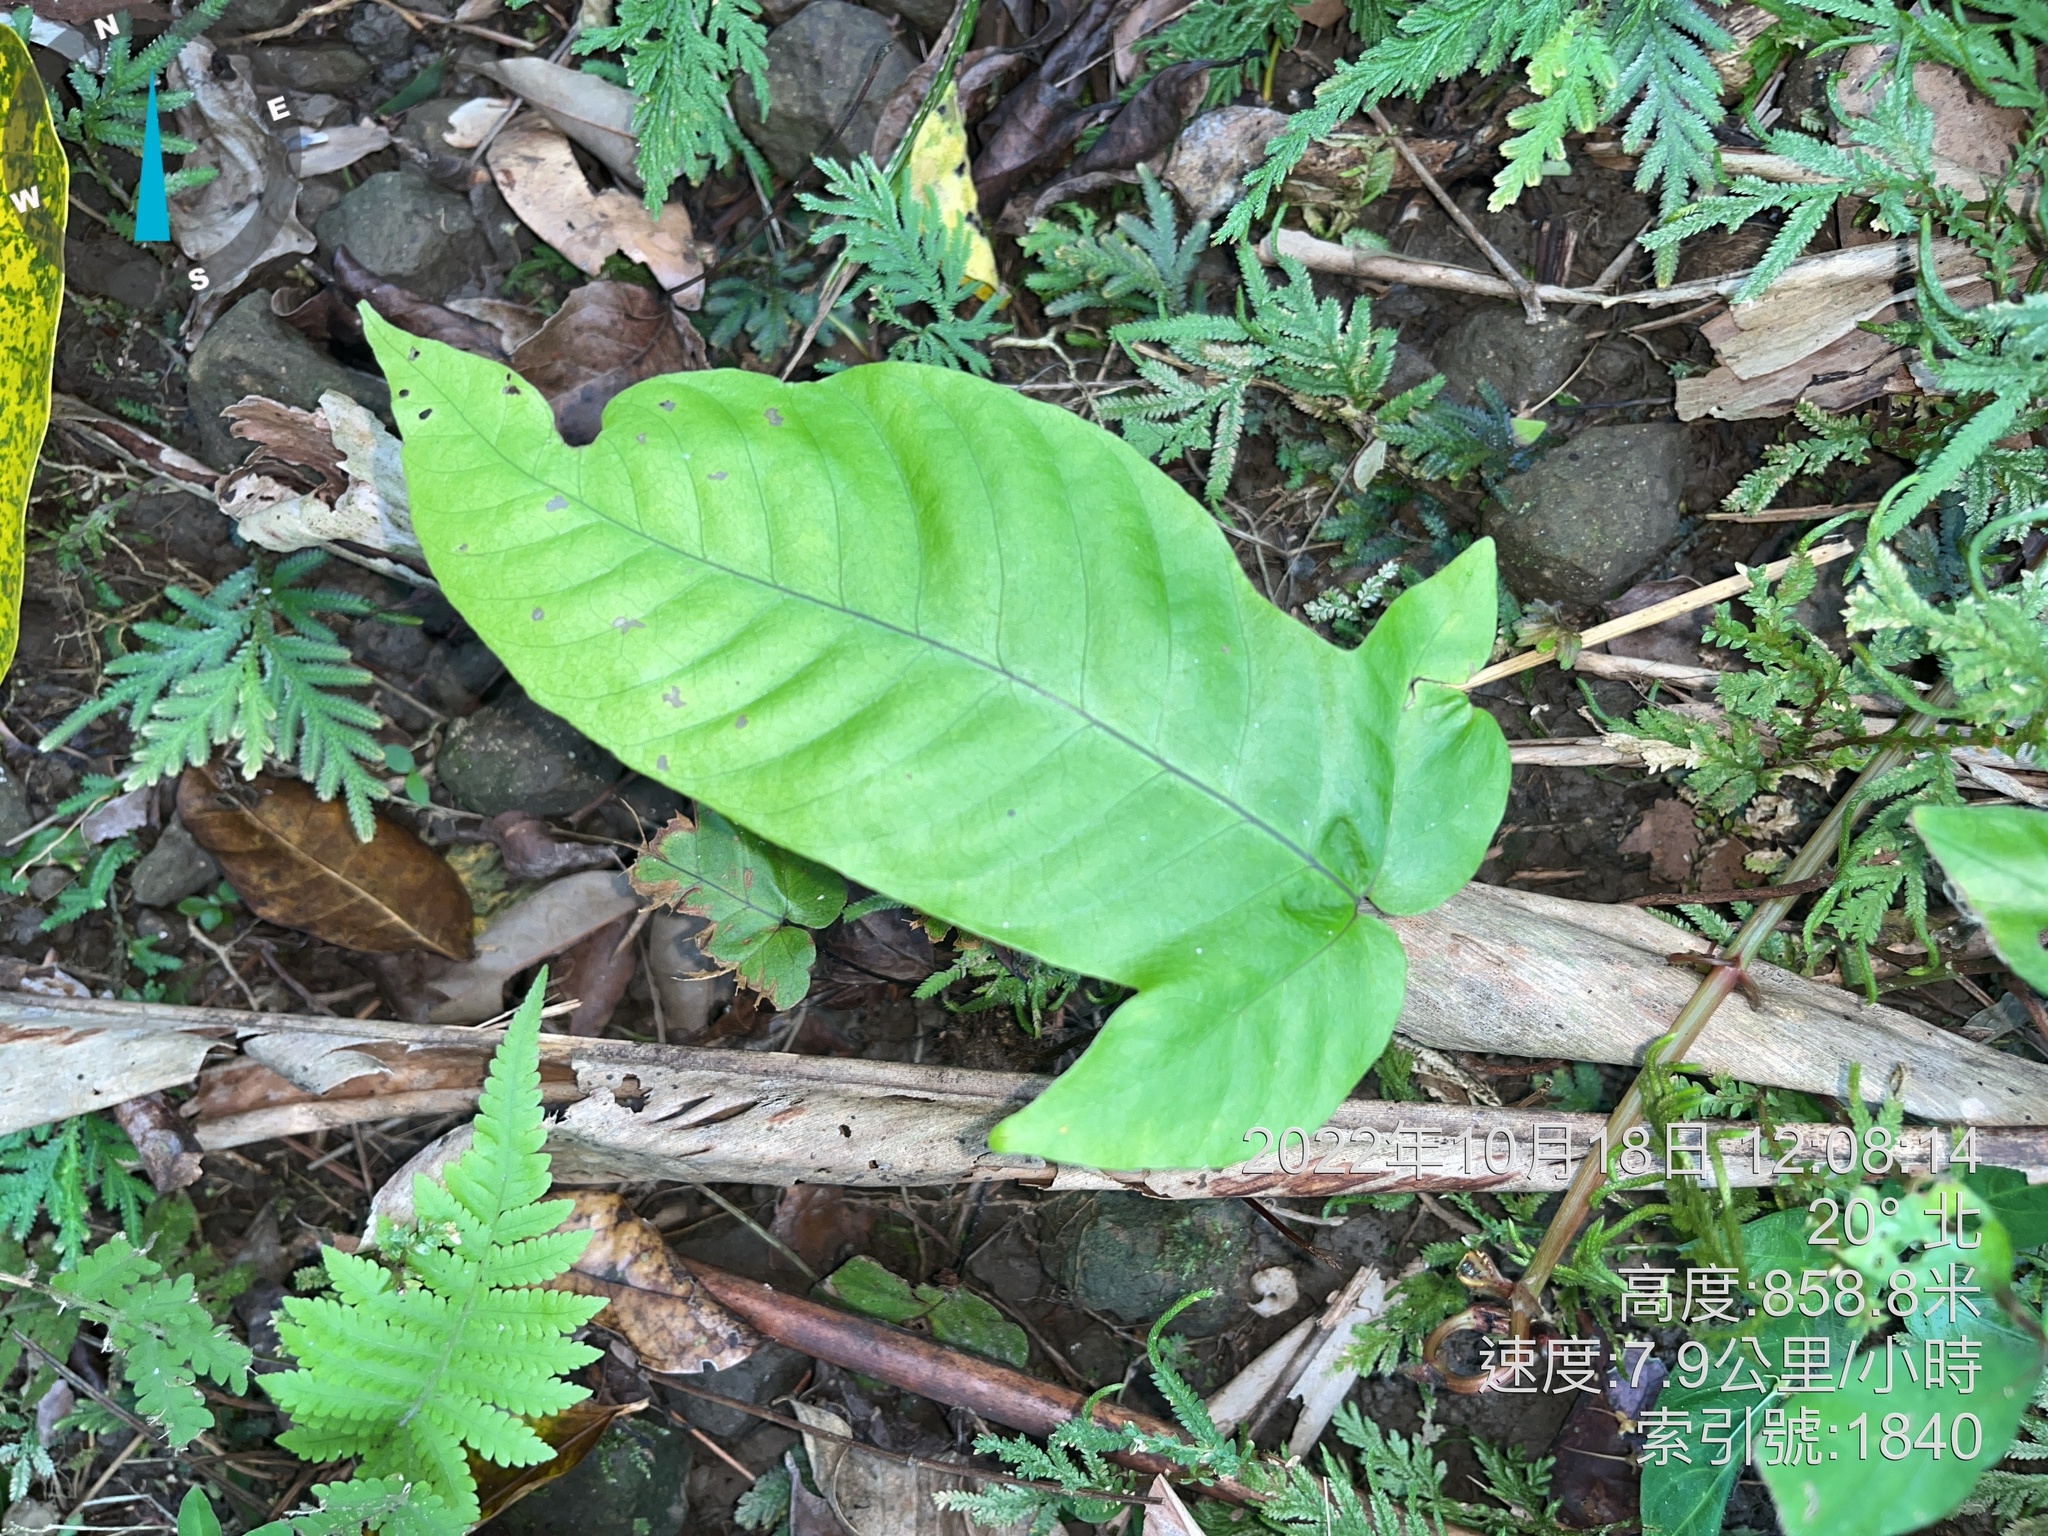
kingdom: Plantae
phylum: Tracheophyta
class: Polypodiopsida
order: Polypodiales
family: Tectariaceae
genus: Tectaria
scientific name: Tectaria polymorpha
